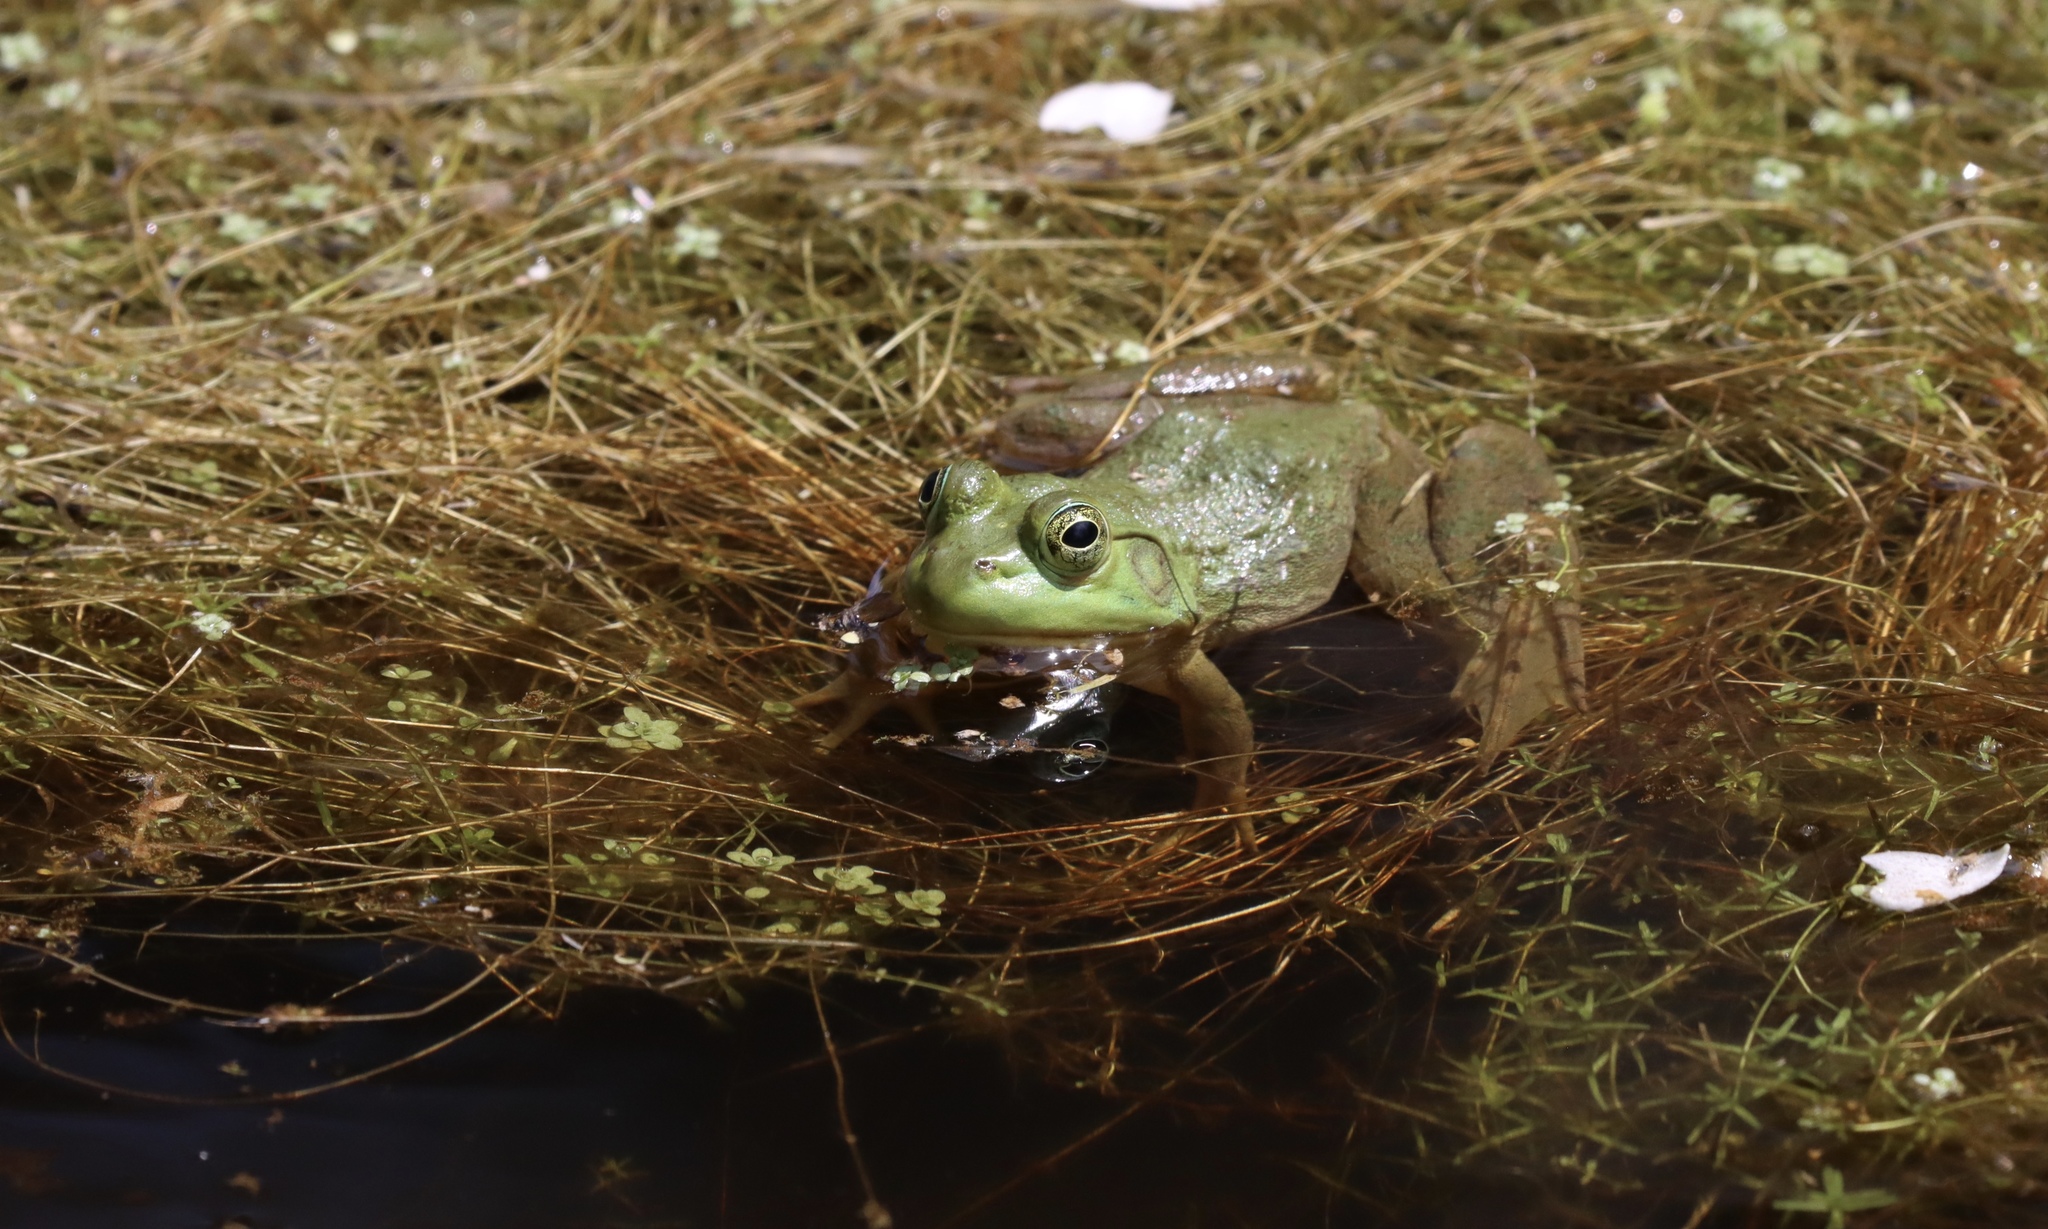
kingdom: Animalia
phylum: Chordata
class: Amphibia
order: Anura
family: Ranidae
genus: Lithobates
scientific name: Lithobates catesbeianus
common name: American bullfrog
